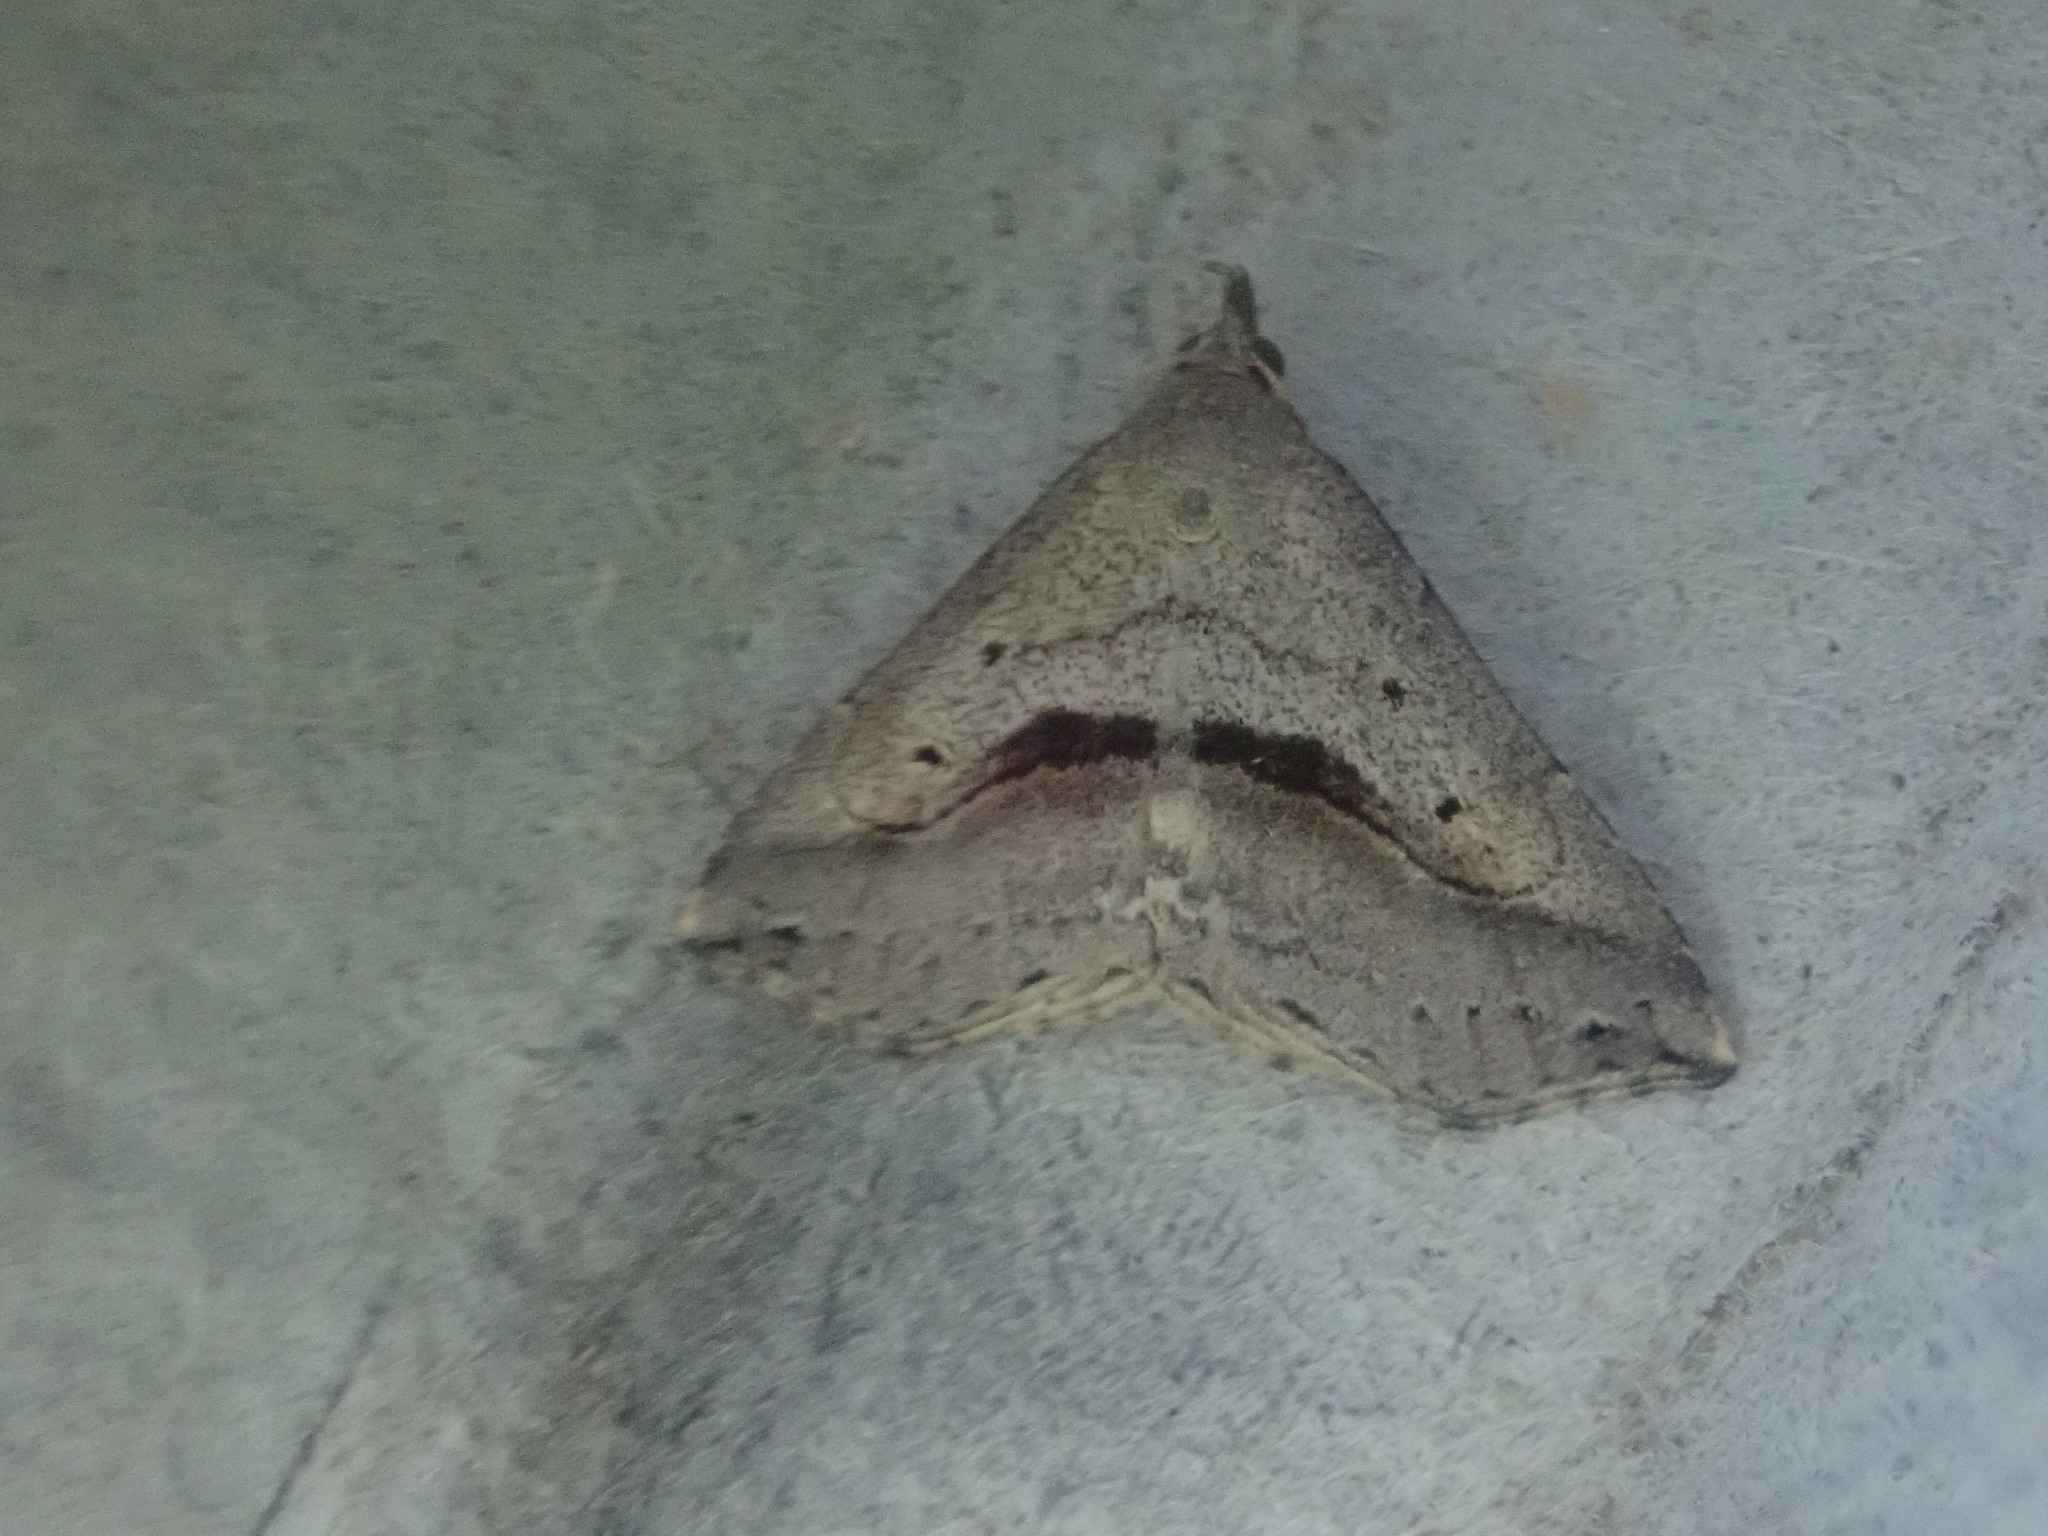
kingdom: Animalia
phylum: Arthropoda
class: Insecta
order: Lepidoptera
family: Erebidae
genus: Spargaloma
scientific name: Spargaloma perditalis
